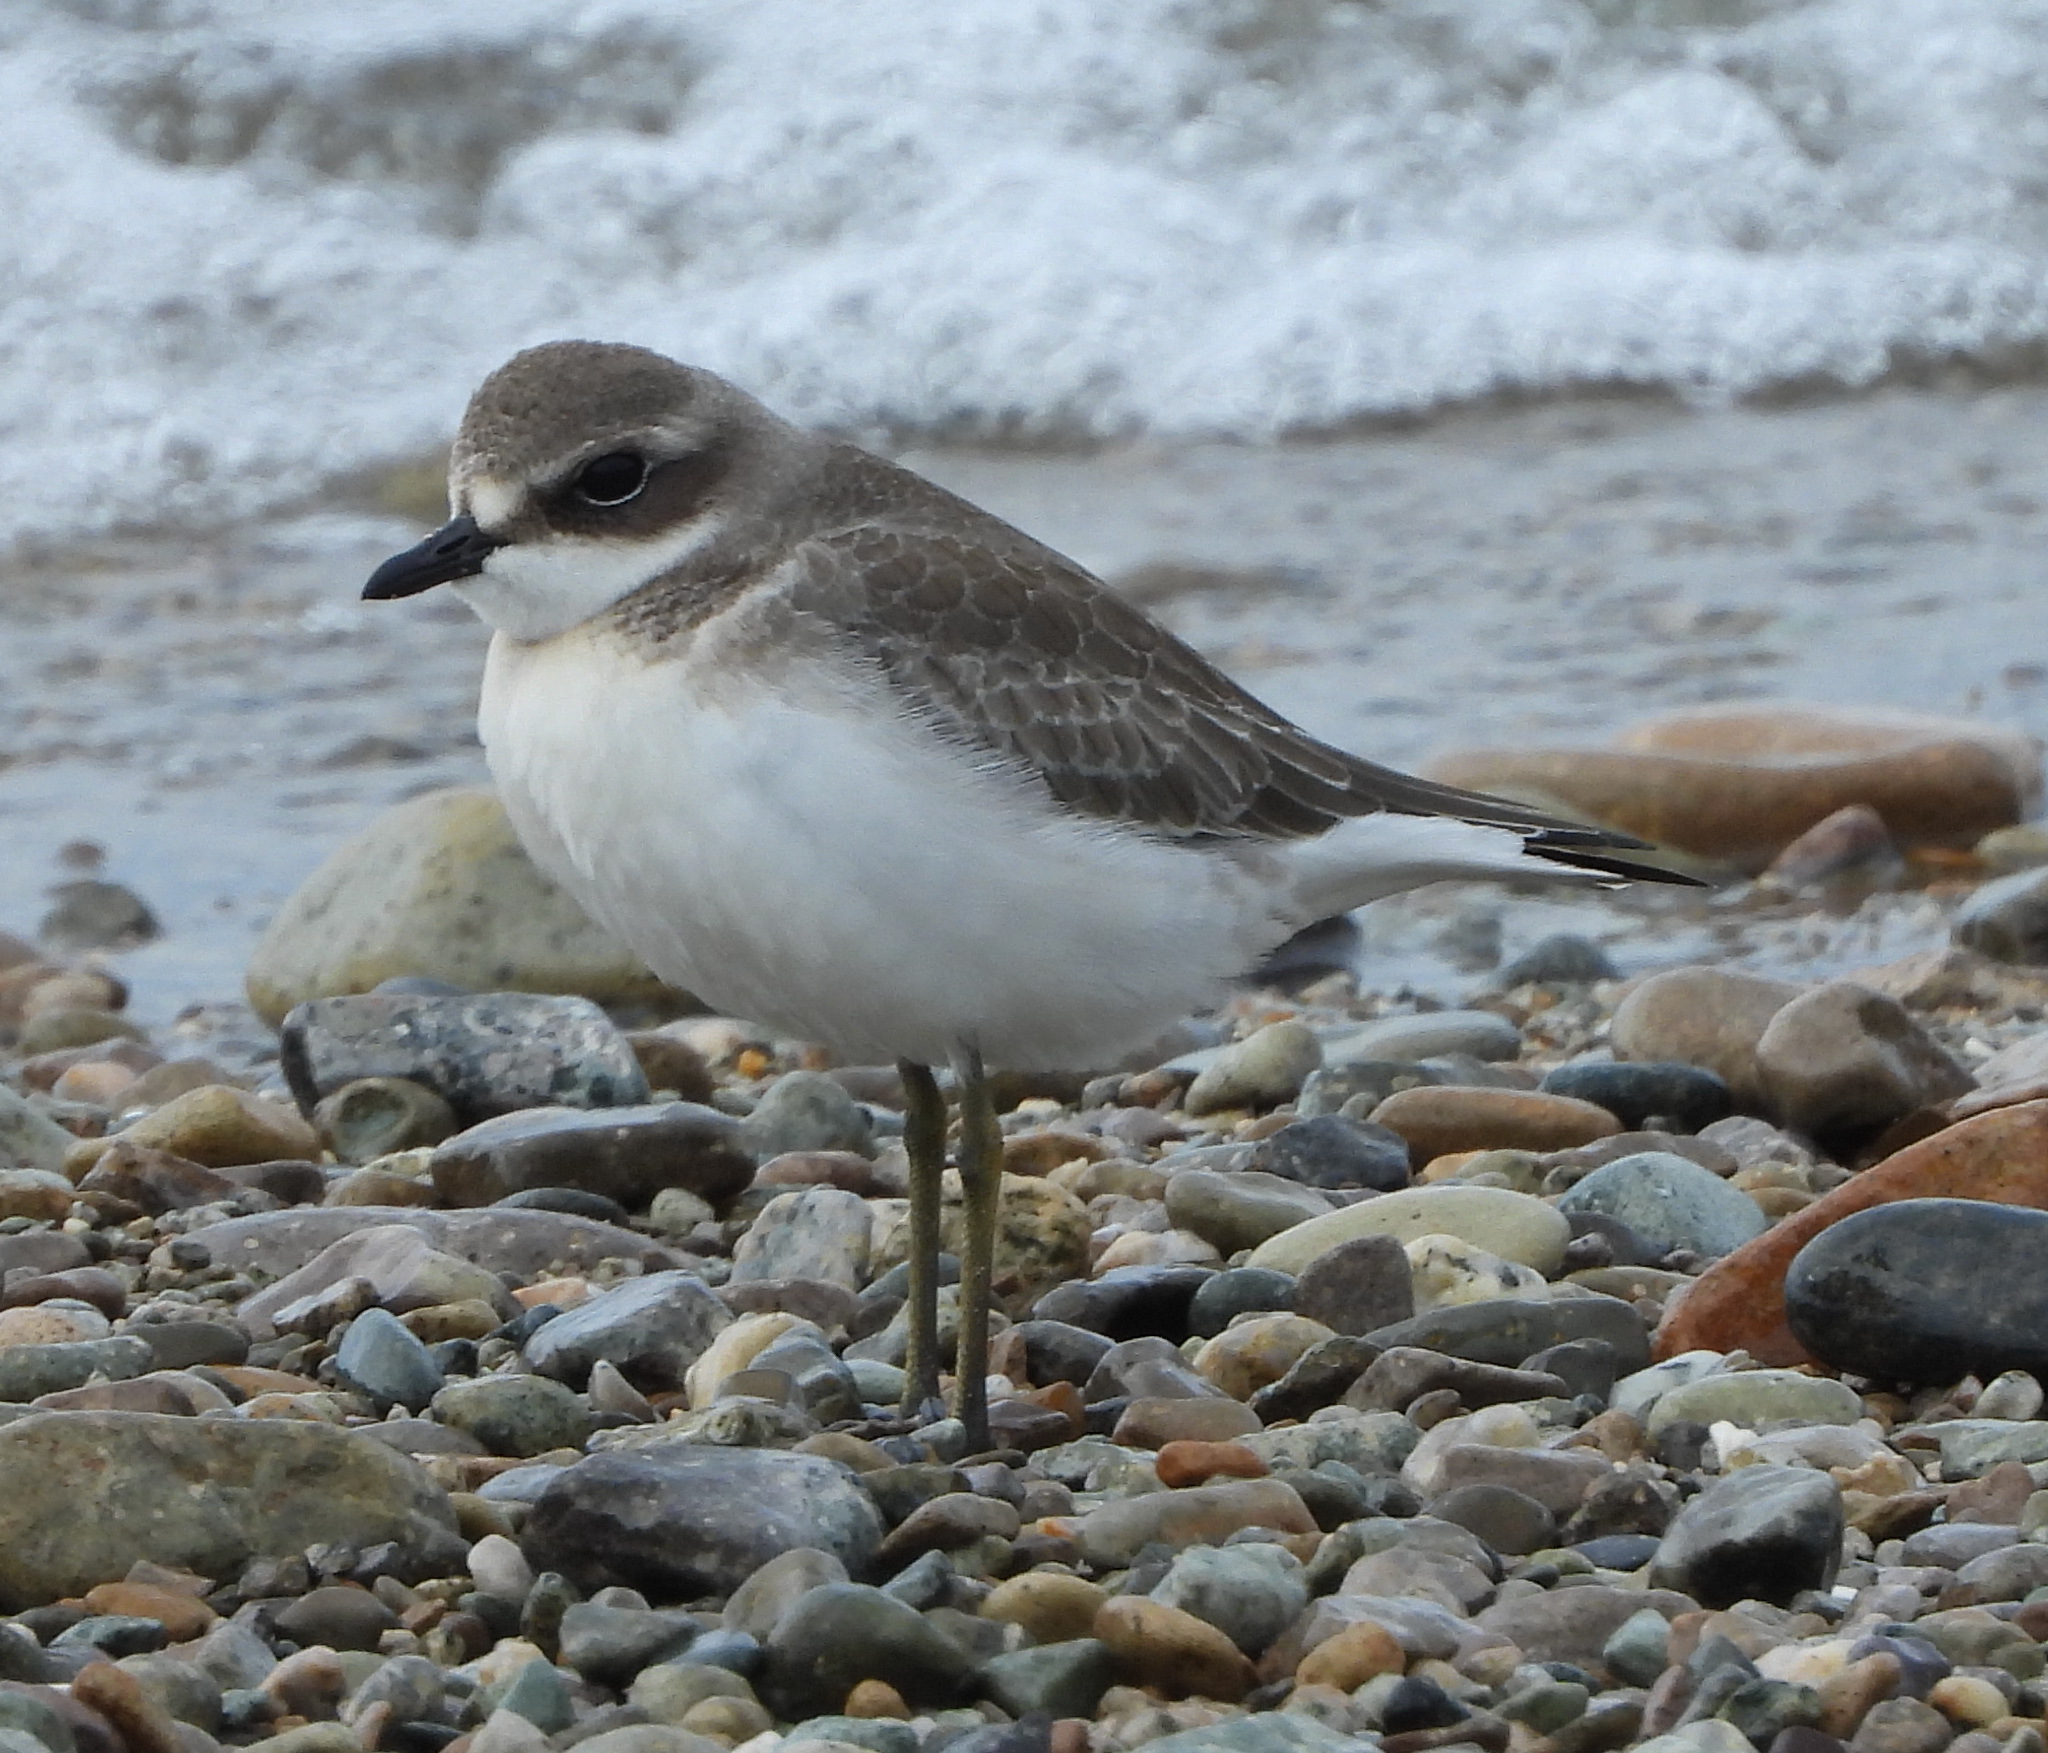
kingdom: Animalia
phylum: Chordata
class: Aves
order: Charadriiformes
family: Charadriidae
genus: Anarhynchus
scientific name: Anarhynchus
